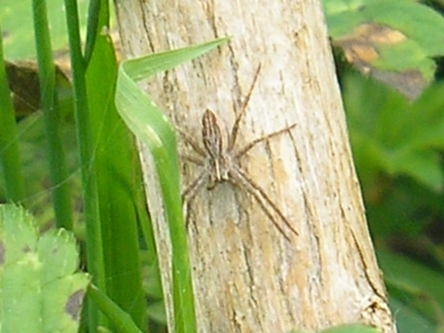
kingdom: Animalia
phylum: Arthropoda
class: Arachnida
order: Araneae
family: Pisauridae
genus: Pisaura
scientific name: Pisaura mirabilis
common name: Tent spider
